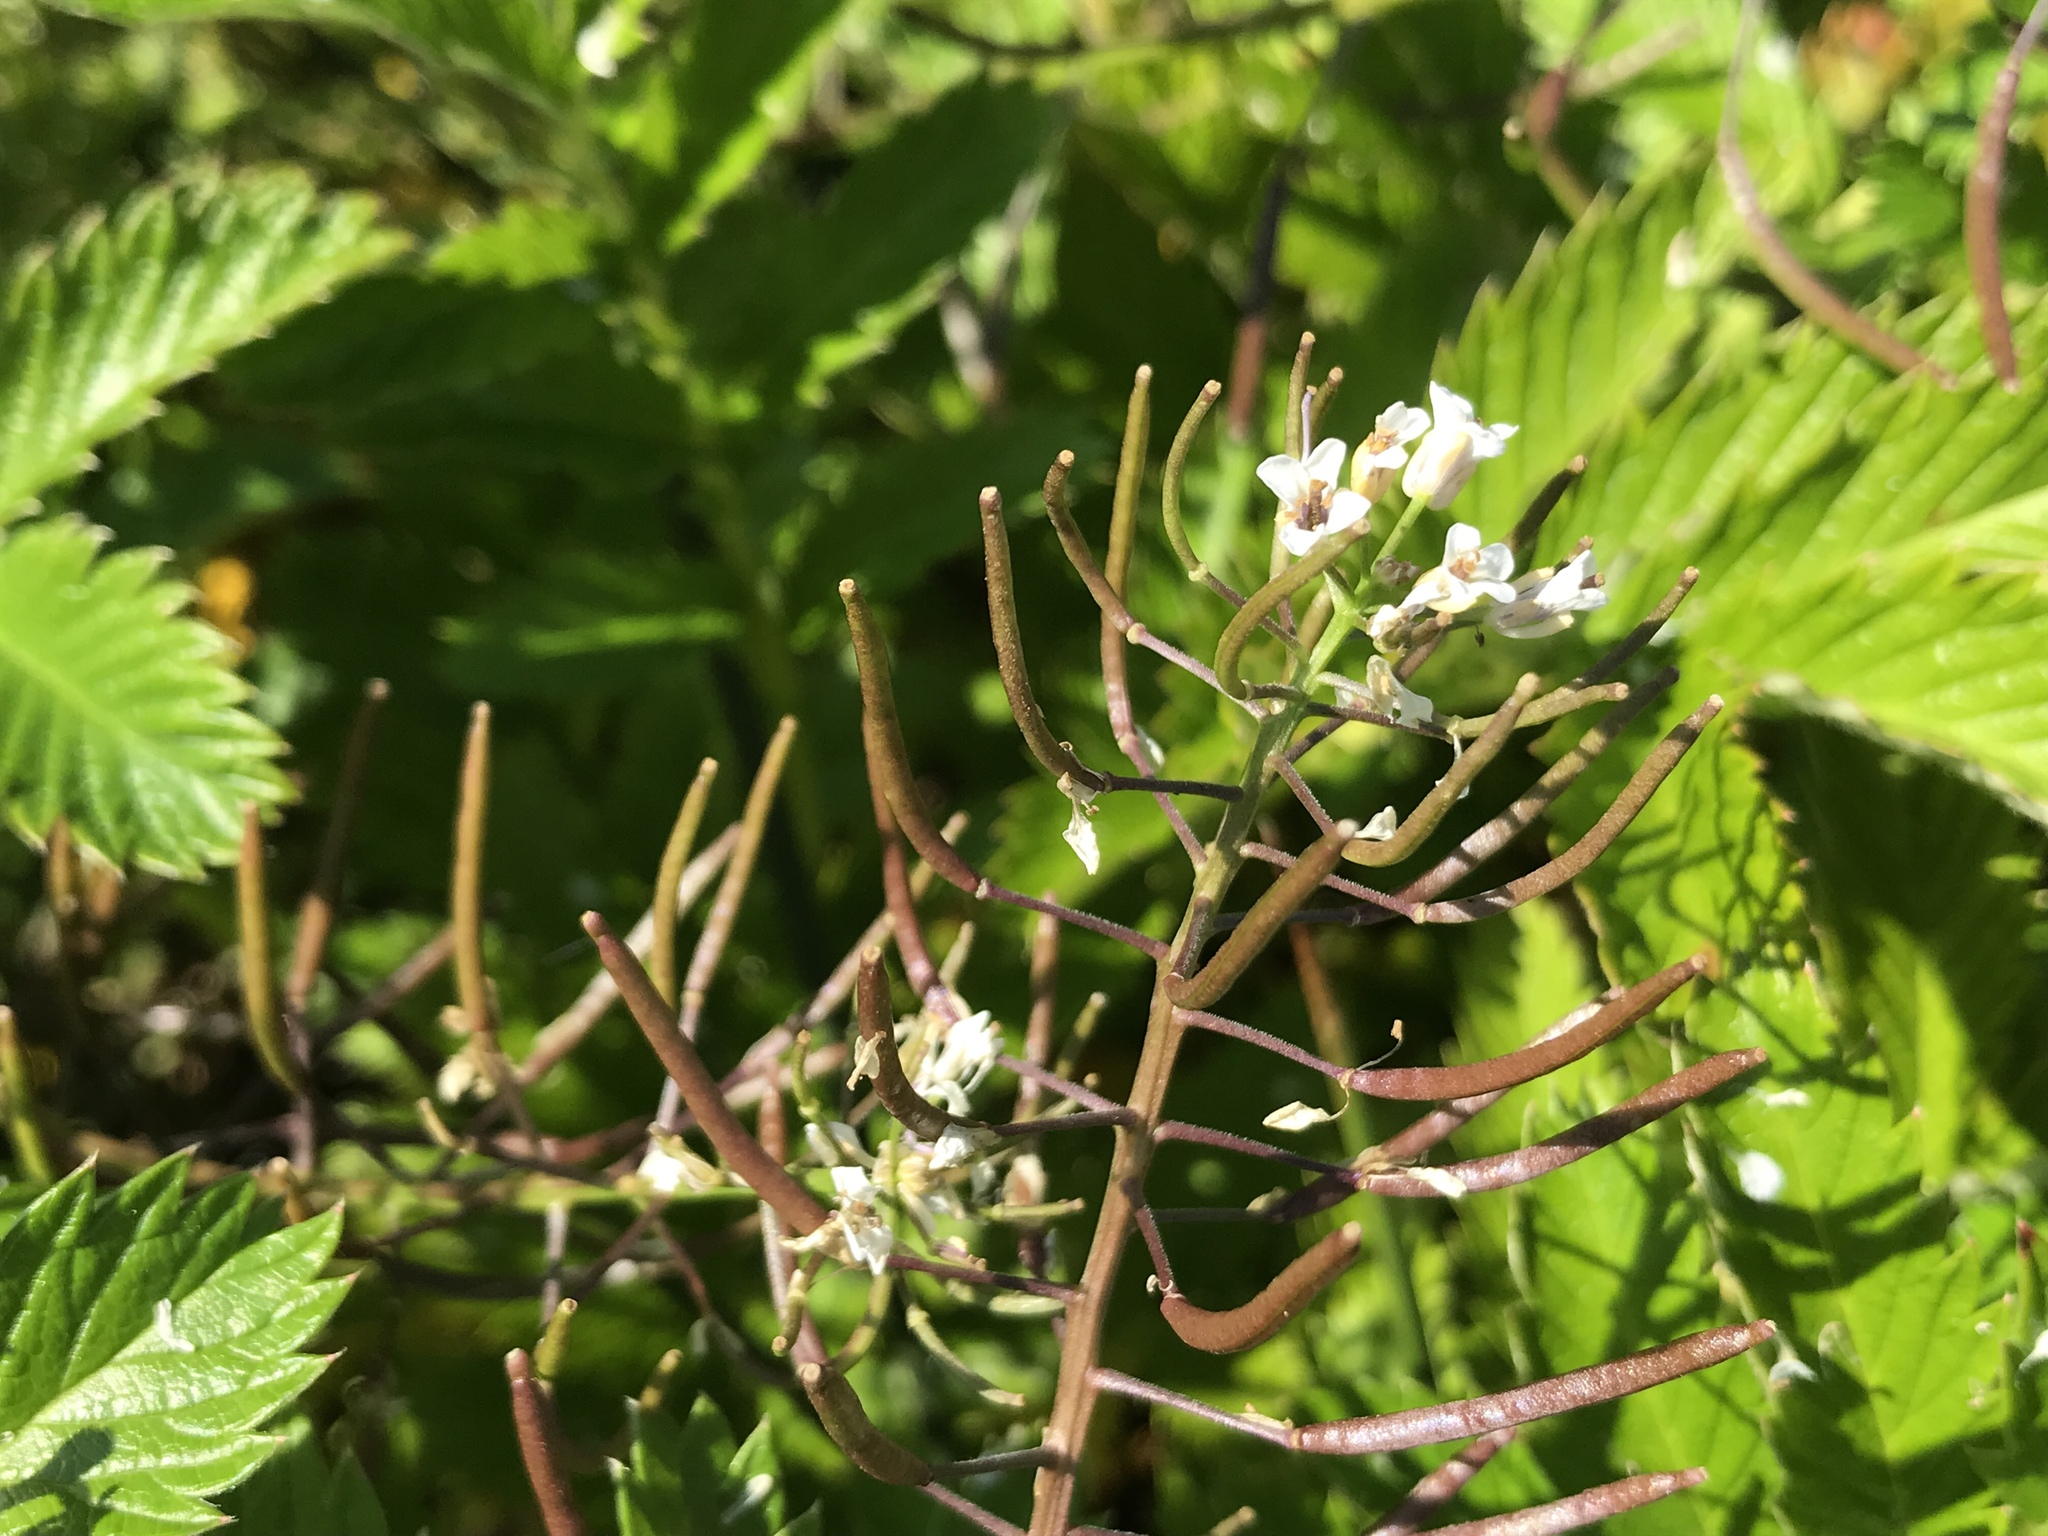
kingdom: Plantae
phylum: Tracheophyta
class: Magnoliopsida
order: Brassicales
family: Brassicaceae
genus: Nasturtium
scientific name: Nasturtium officinale
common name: Watercress
